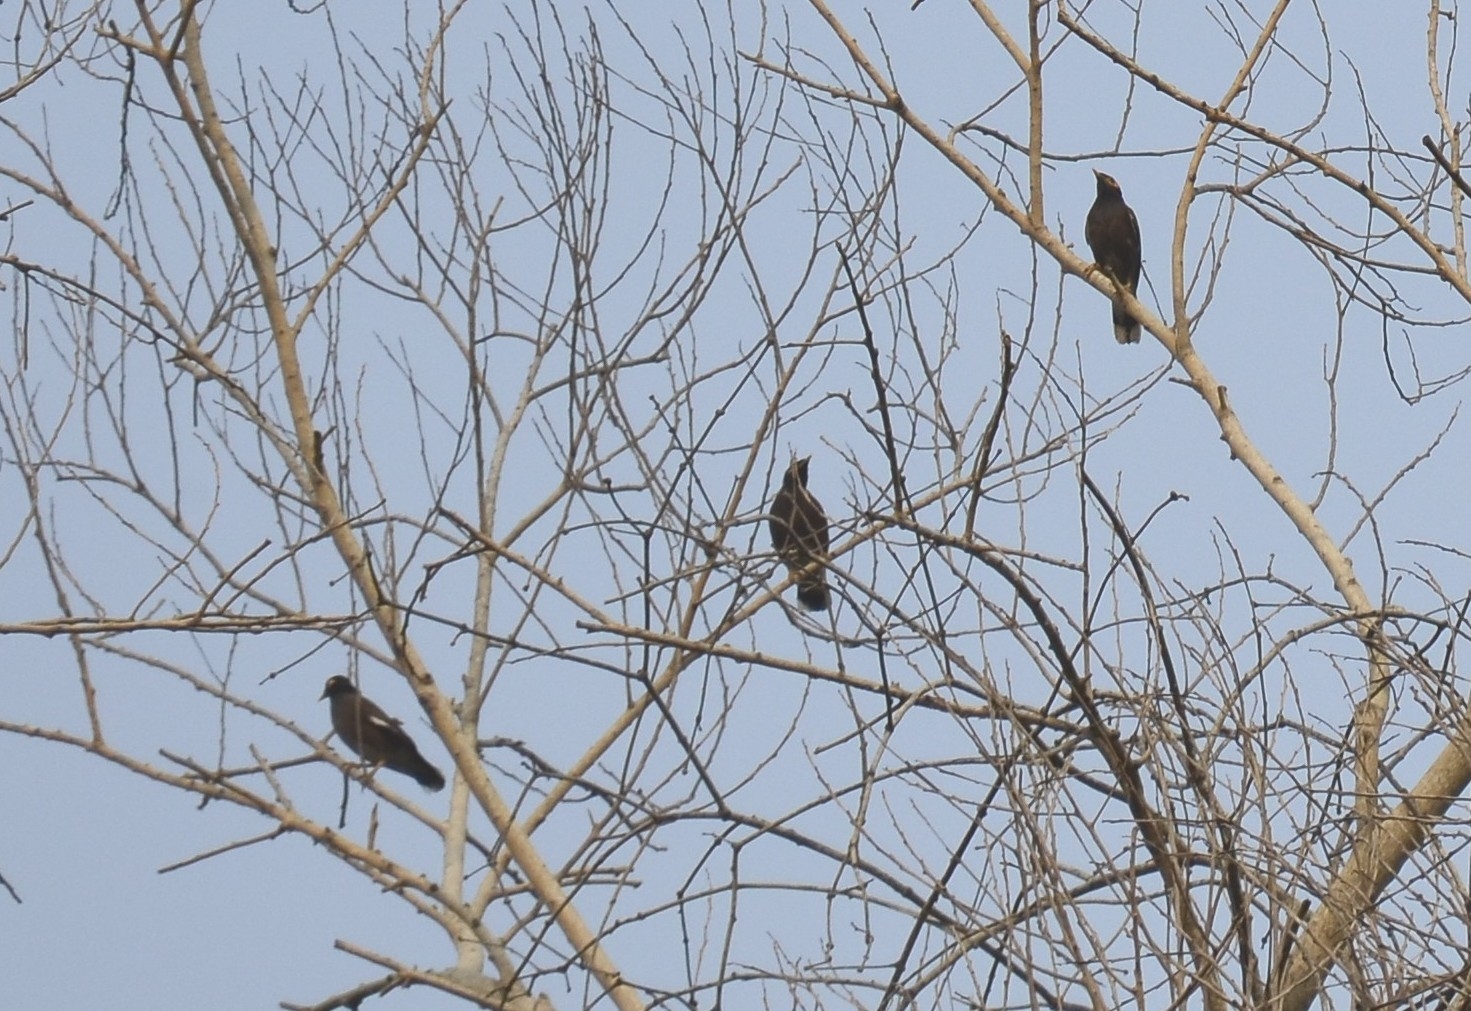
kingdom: Animalia
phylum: Chordata
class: Aves
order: Passeriformes
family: Sturnidae
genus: Acridotheres
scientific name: Acridotheres tristis
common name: Common myna
